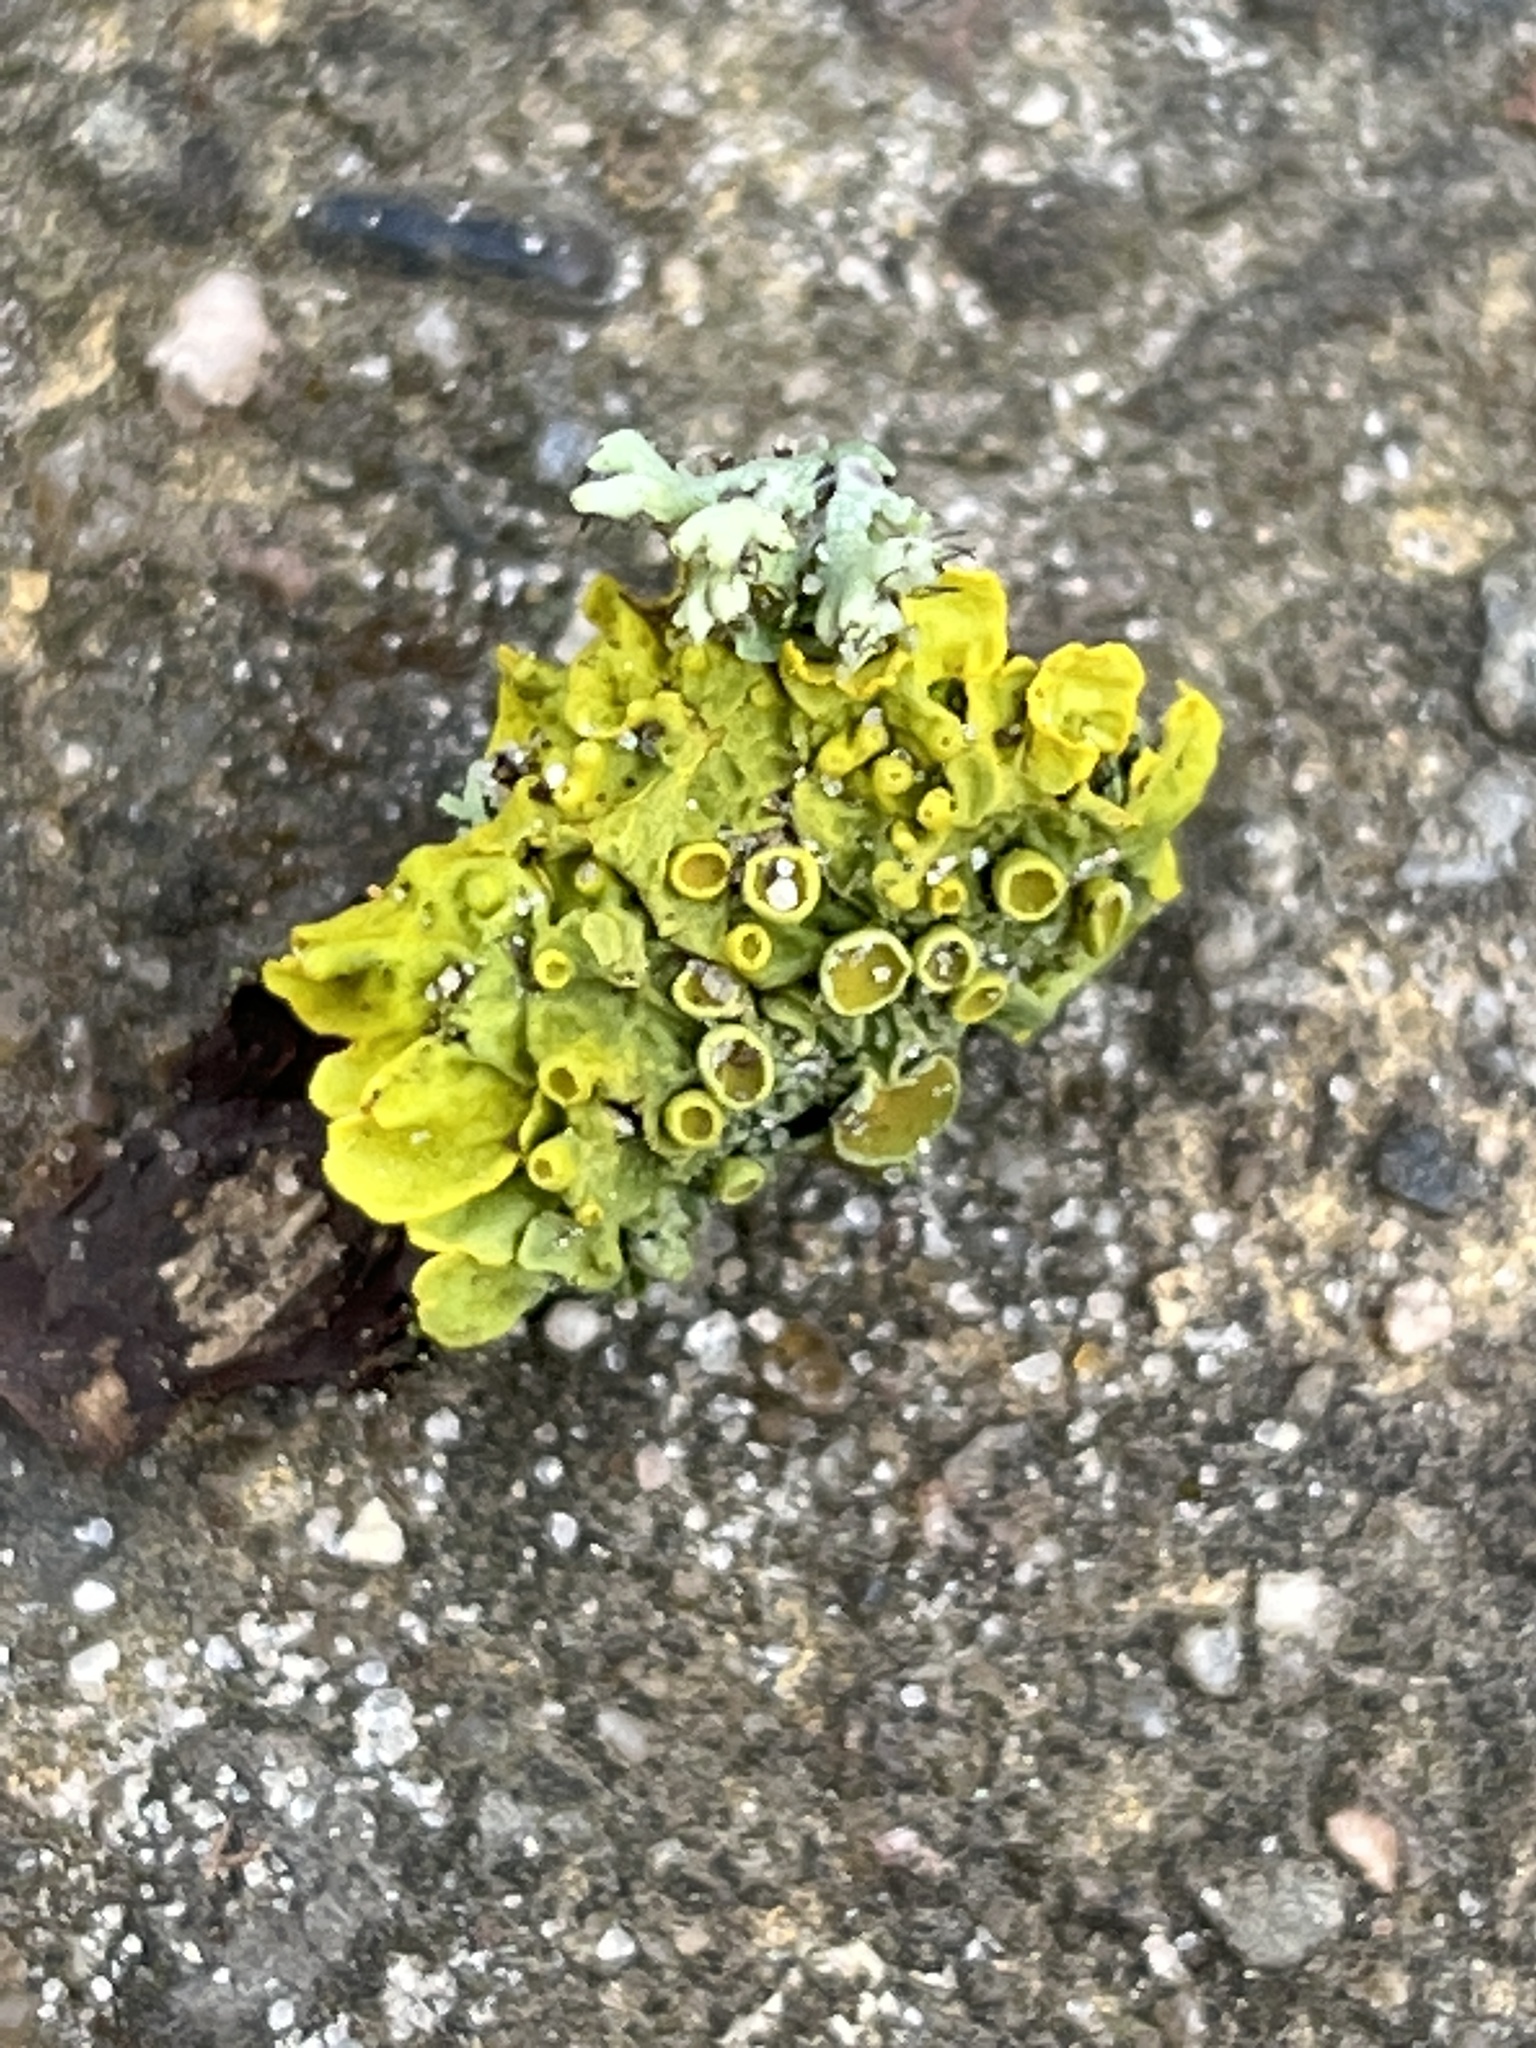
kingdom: Fungi
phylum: Ascomycota
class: Lecanoromycetes
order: Teloschistales
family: Teloschistaceae
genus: Xanthoria
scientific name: Xanthoria parietina
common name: Common orange lichen
